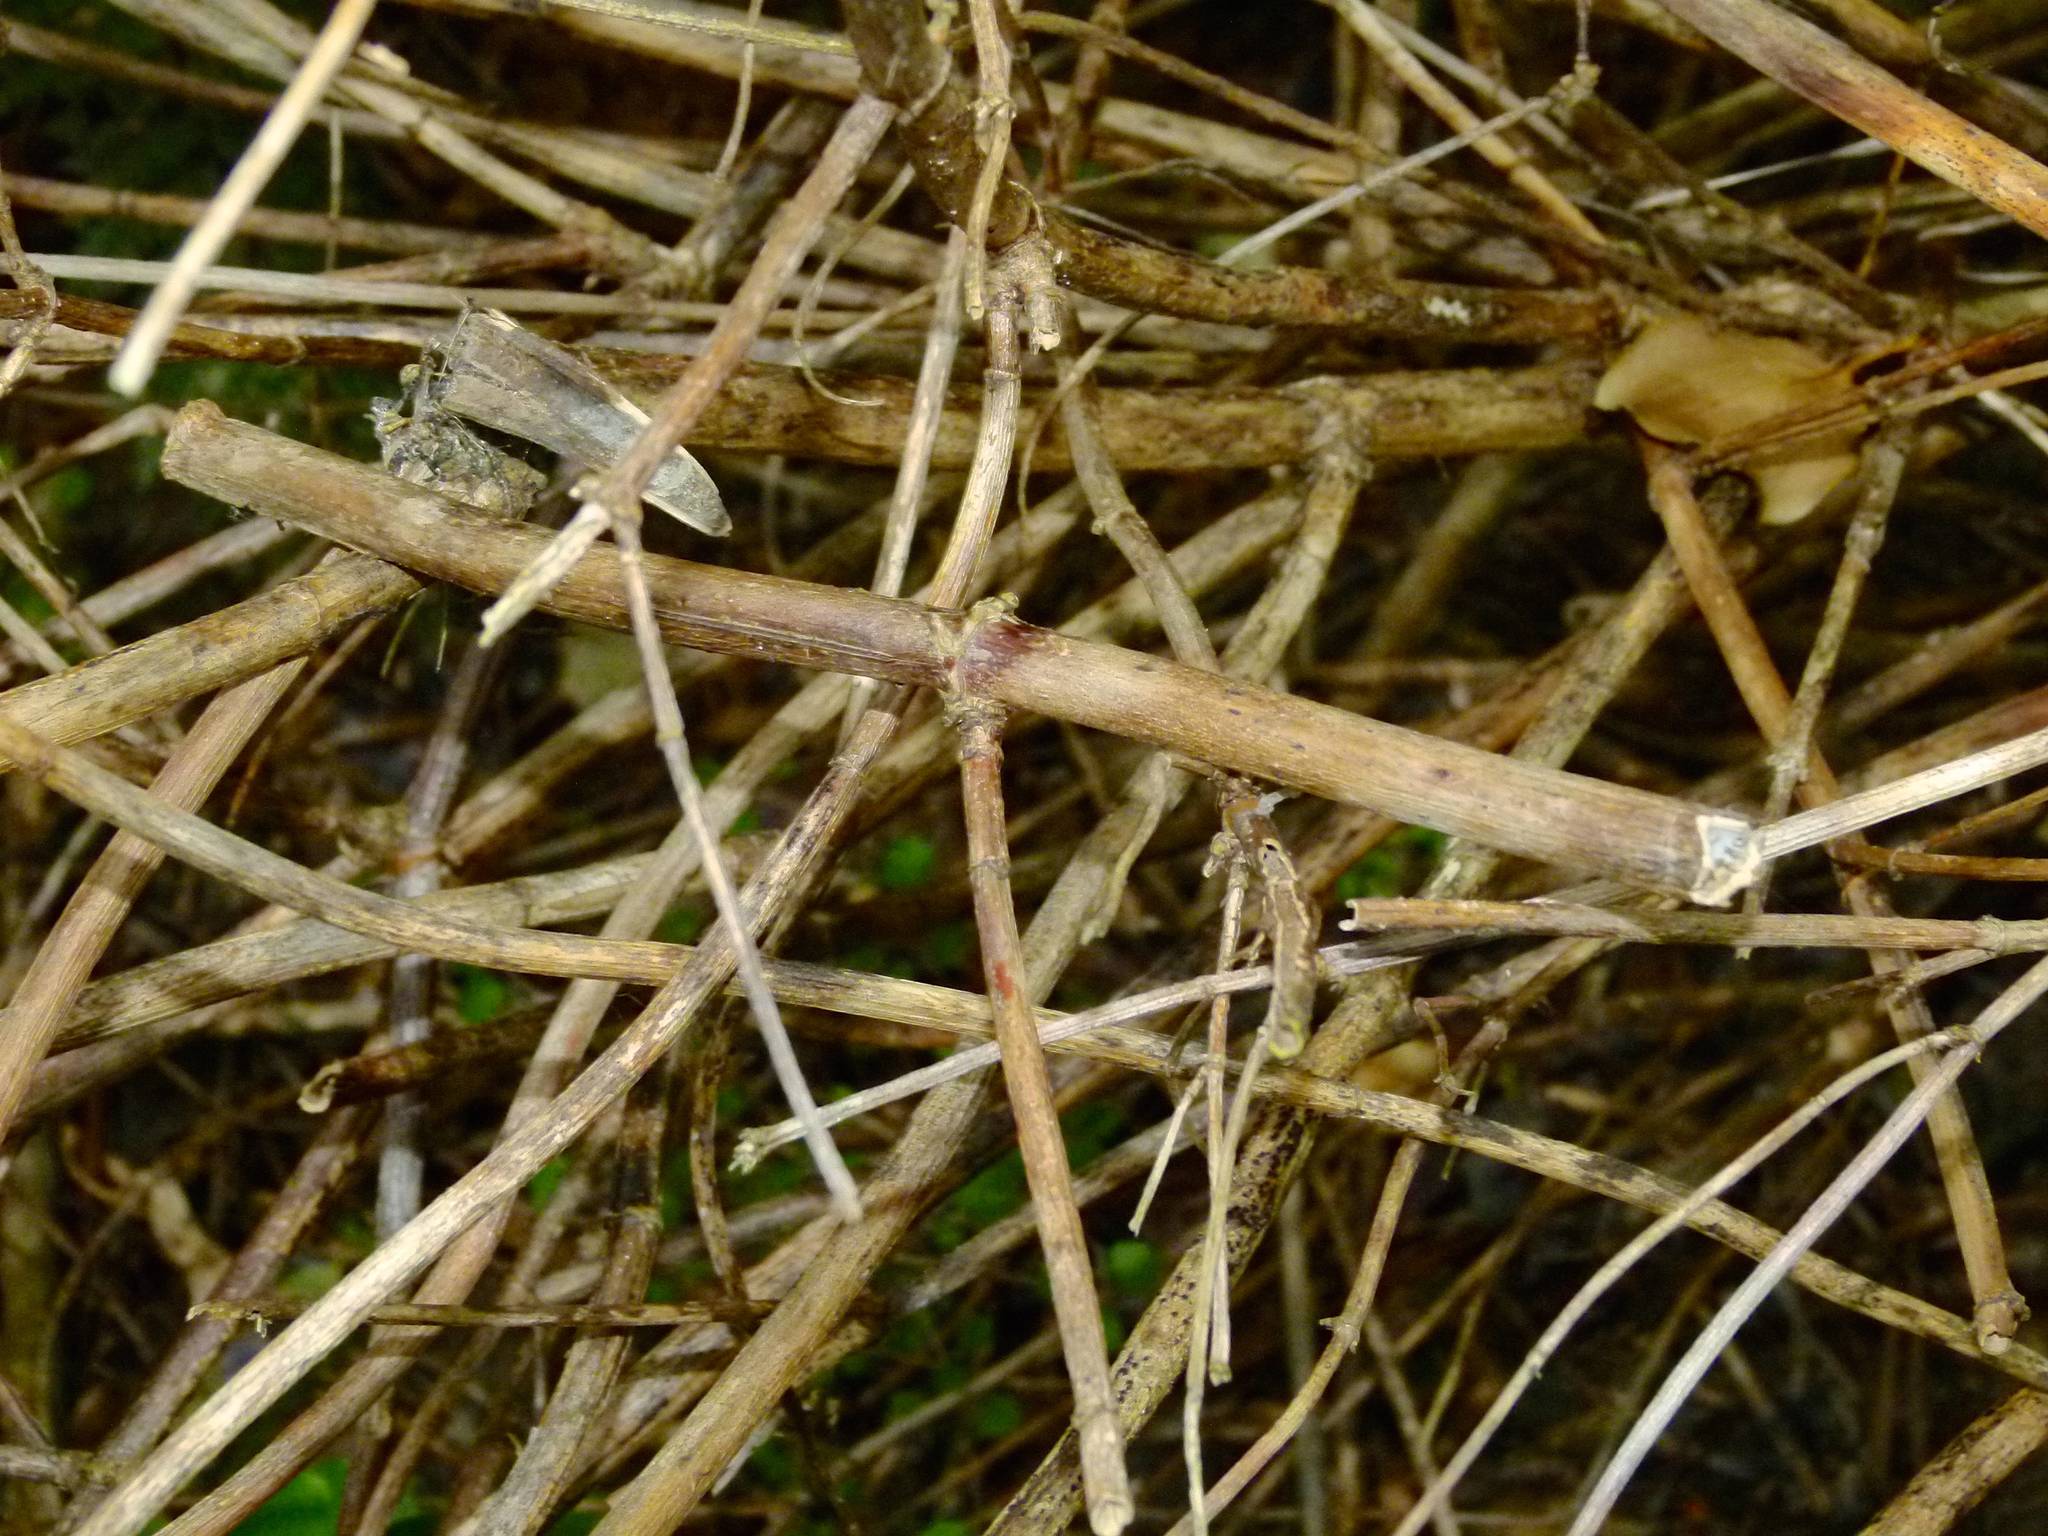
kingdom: Animalia
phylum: Arthropoda
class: Insecta
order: Orthoptera
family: Rhaphidophoridae
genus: Talitropsis
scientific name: Talitropsis sedilloti
